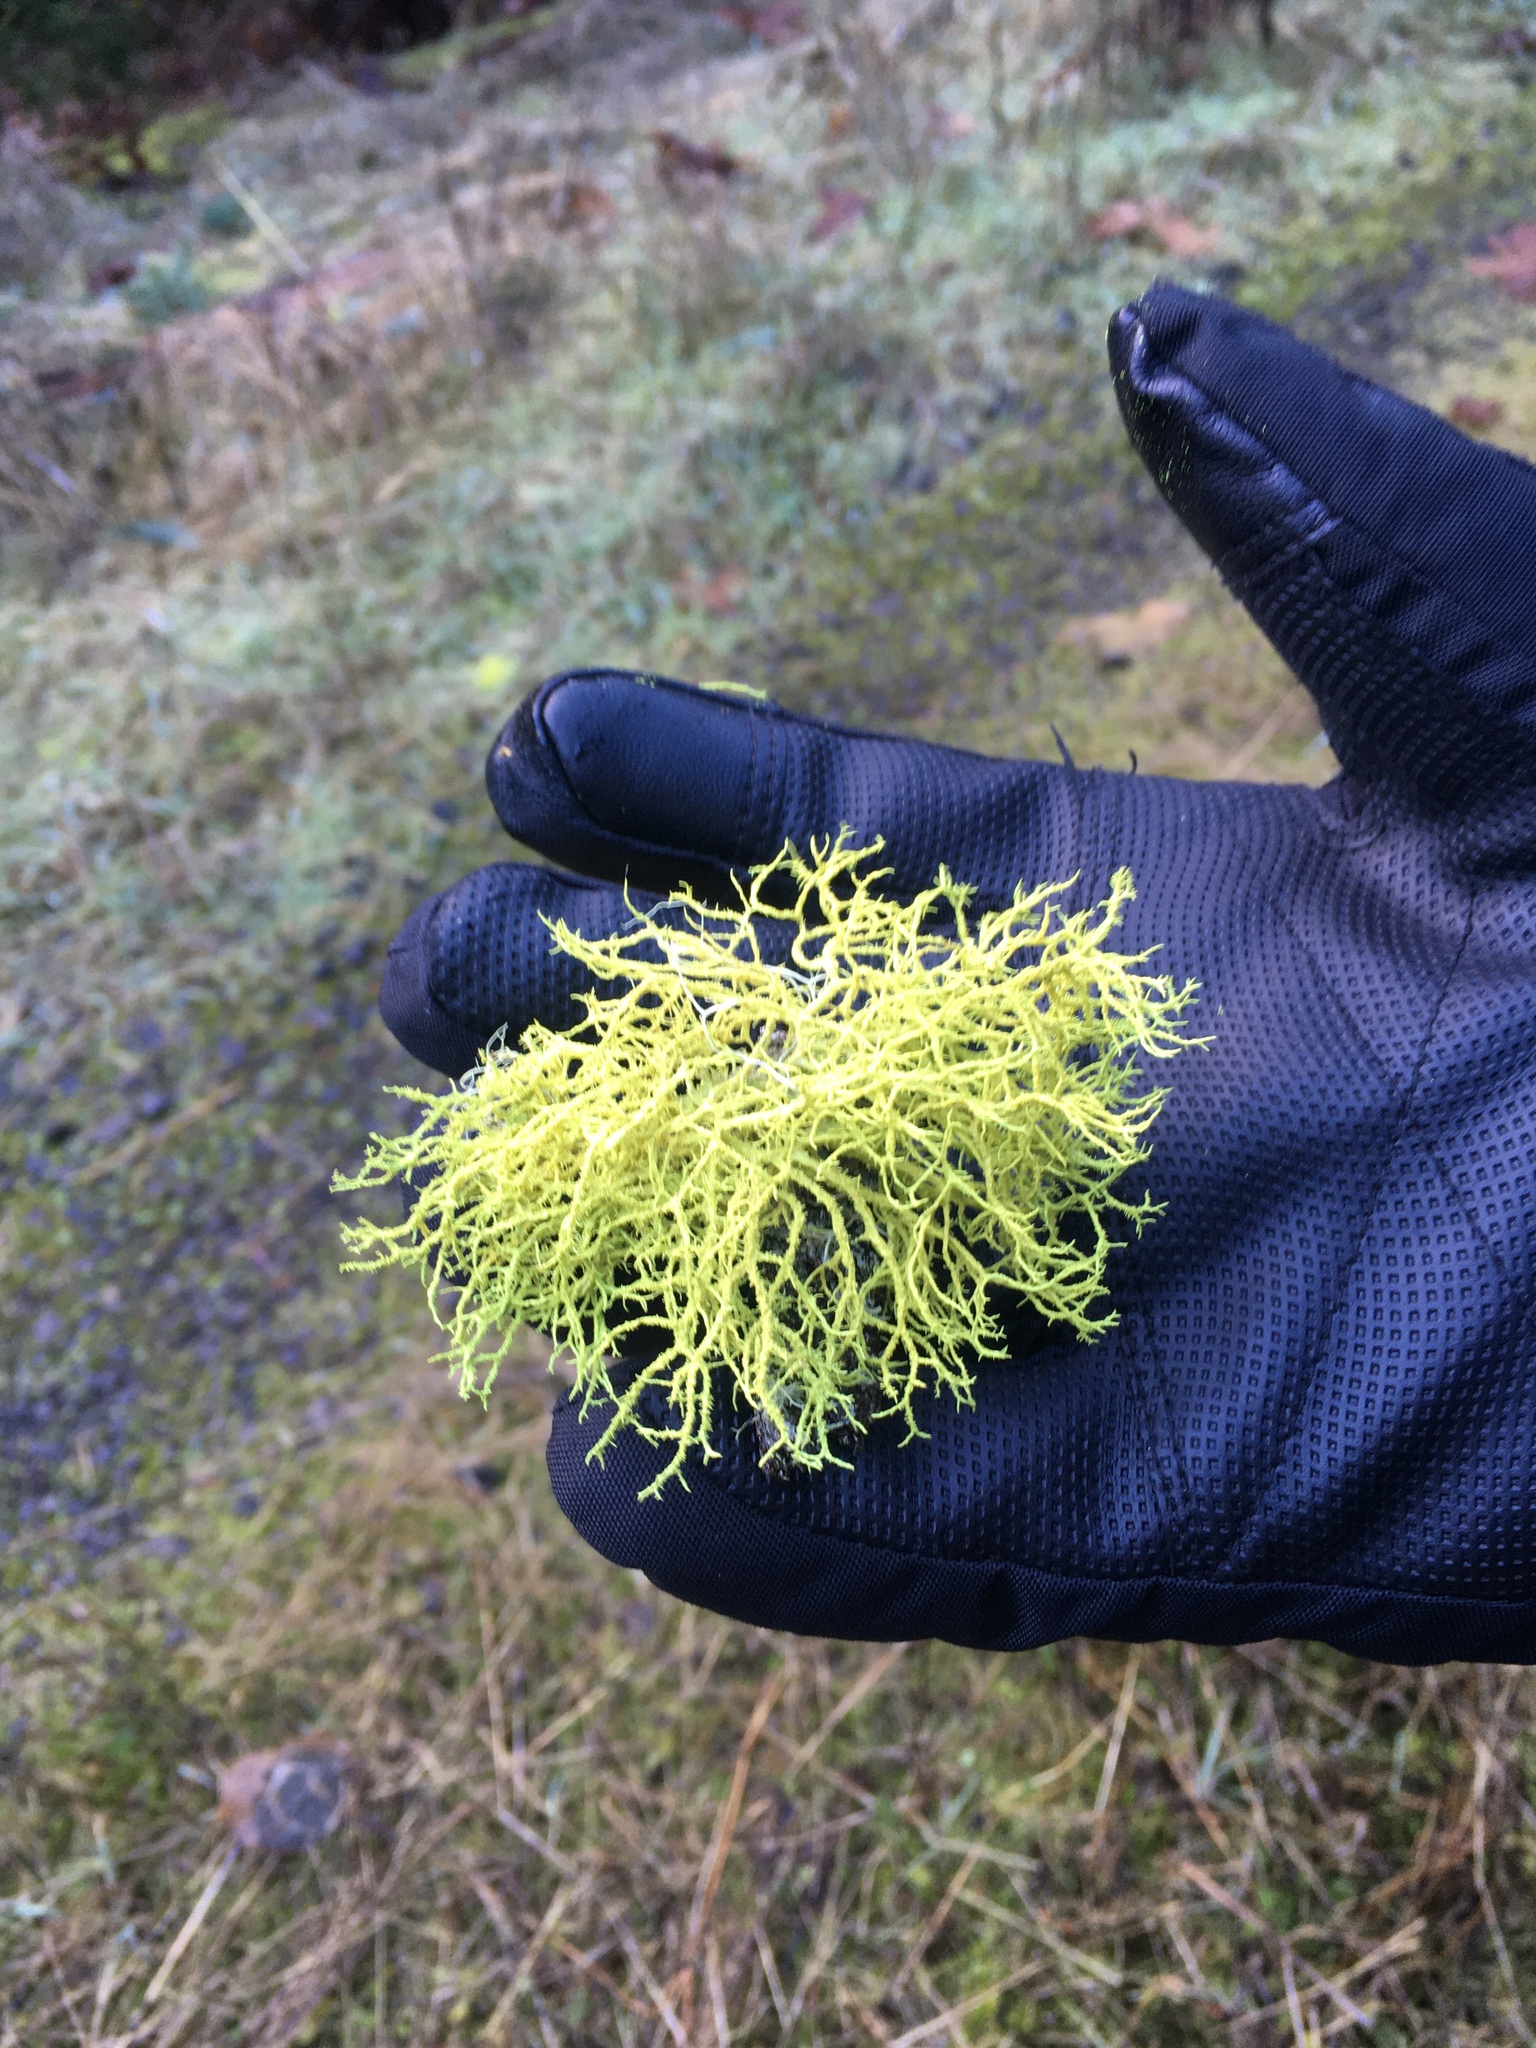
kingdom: Fungi
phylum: Ascomycota
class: Lecanoromycetes
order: Lecanorales
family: Parmeliaceae
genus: Letharia
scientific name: Letharia vulpina
